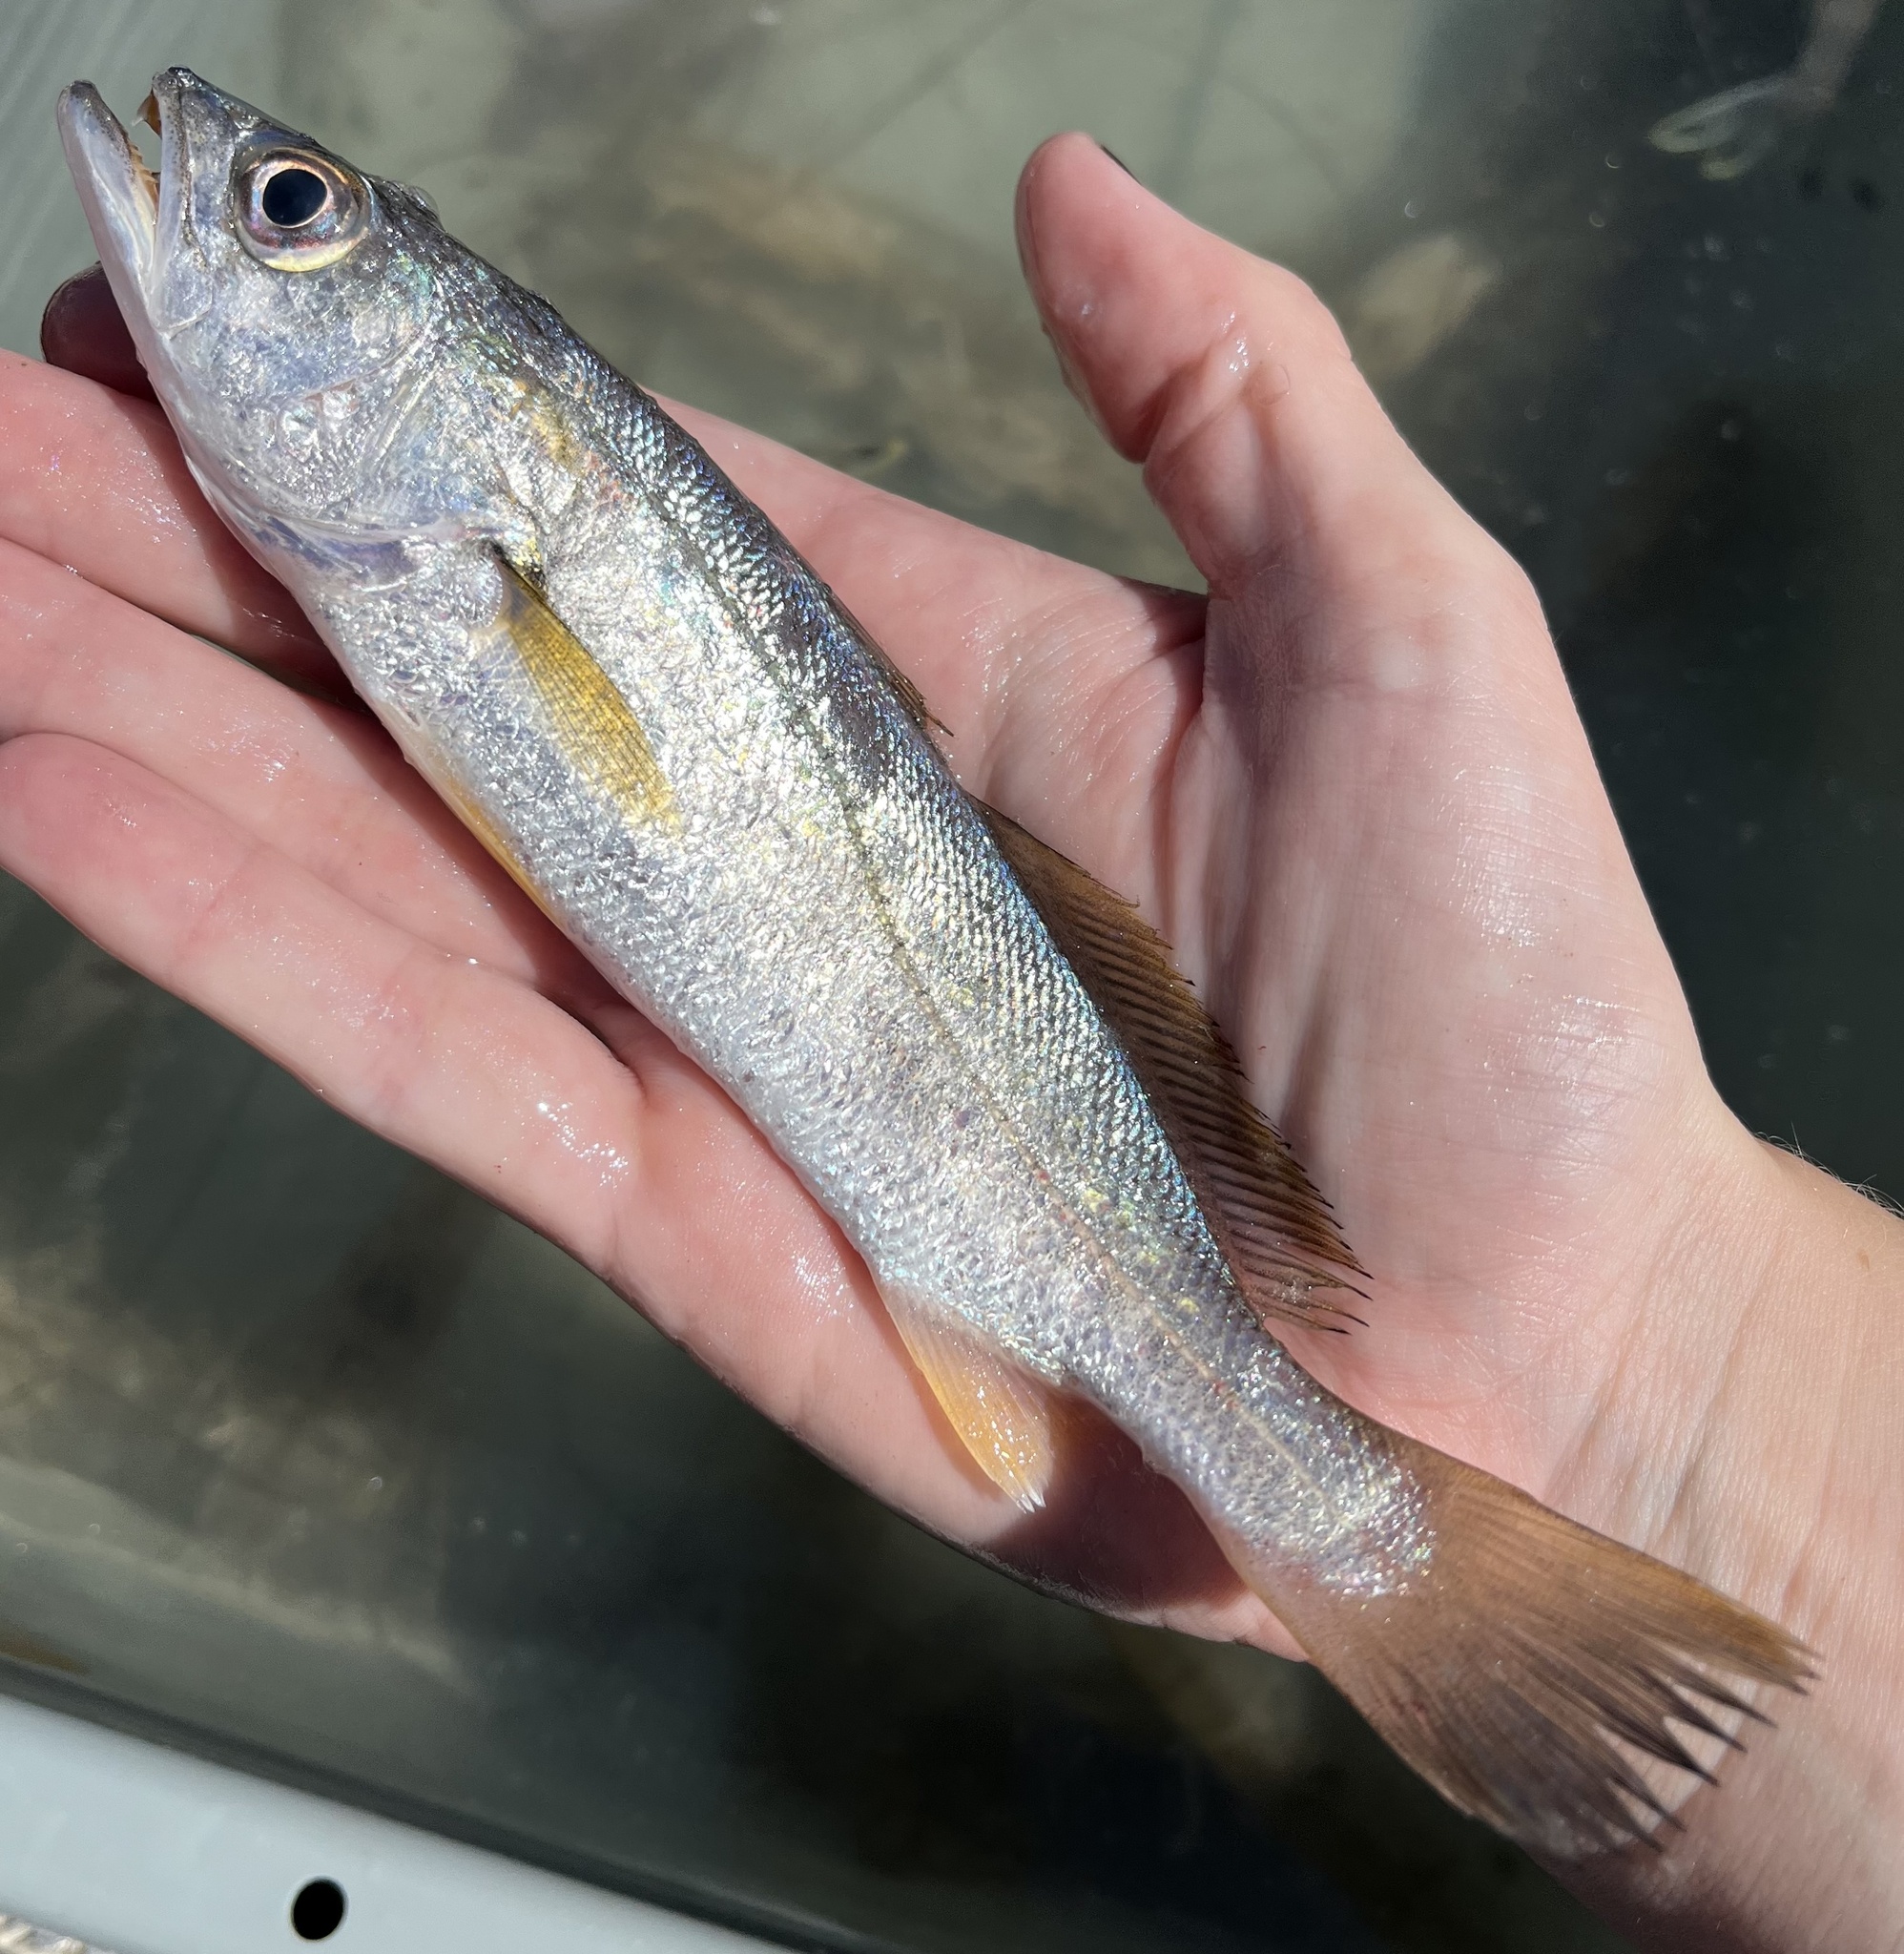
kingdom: Animalia
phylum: Chordata
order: Perciformes
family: Sciaenidae
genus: Cynoscion
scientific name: Cynoscion arenarius
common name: Sand seatrout
